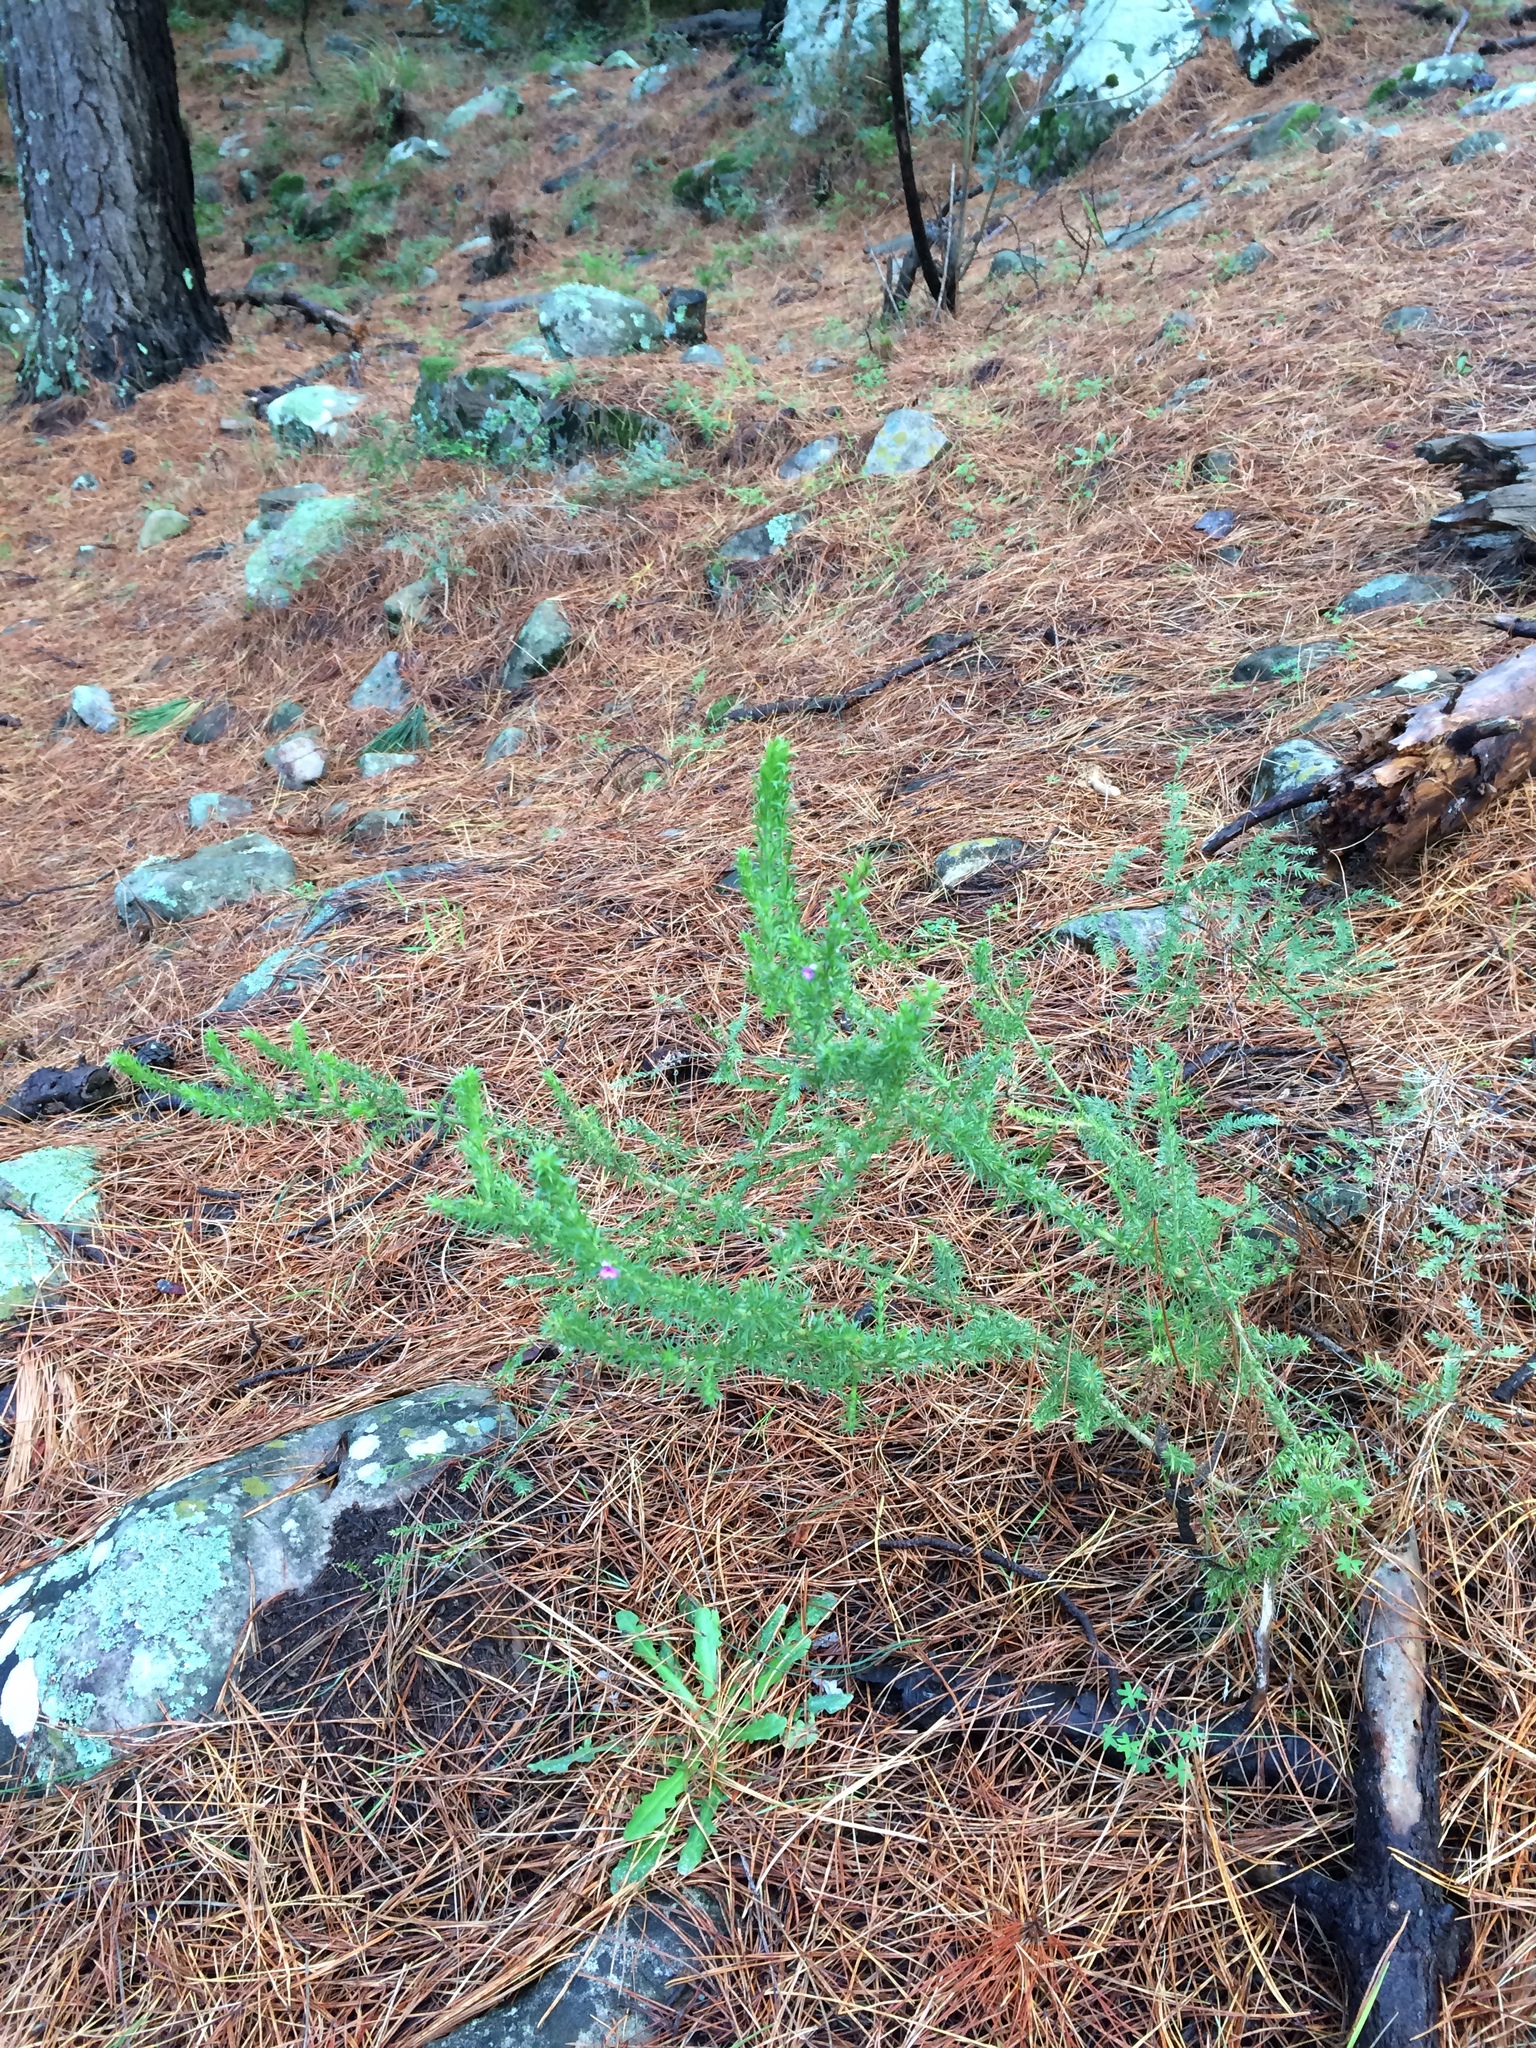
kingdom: Plantae
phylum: Tracheophyta
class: Magnoliopsida
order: Fabales
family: Polygalaceae
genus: Muraltia
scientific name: Muraltia heisteria
